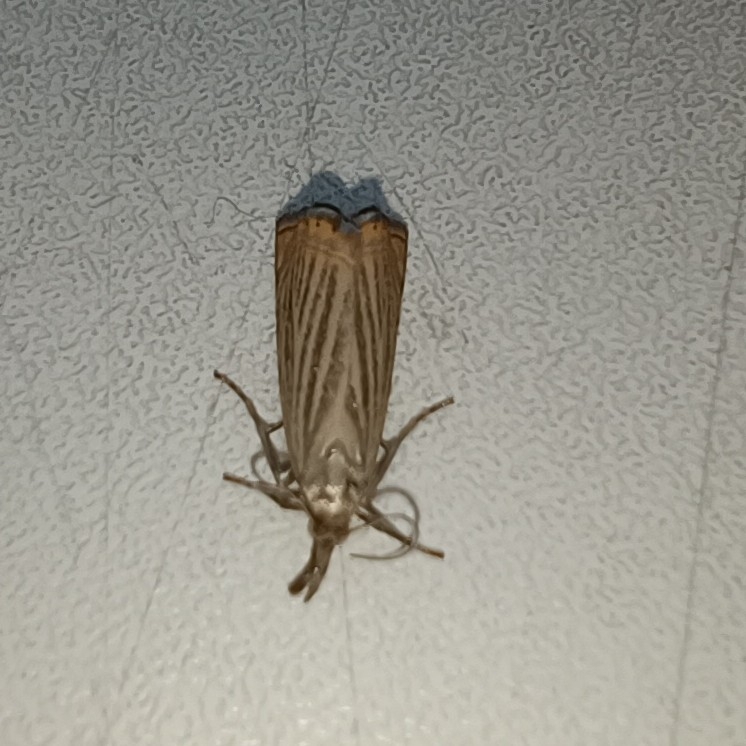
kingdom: Animalia
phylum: Arthropoda
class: Insecta
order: Lepidoptera
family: Crambidae
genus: Chrysoteuchia
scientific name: Chrysoteuchia culmella
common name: Garden grass-veneer
